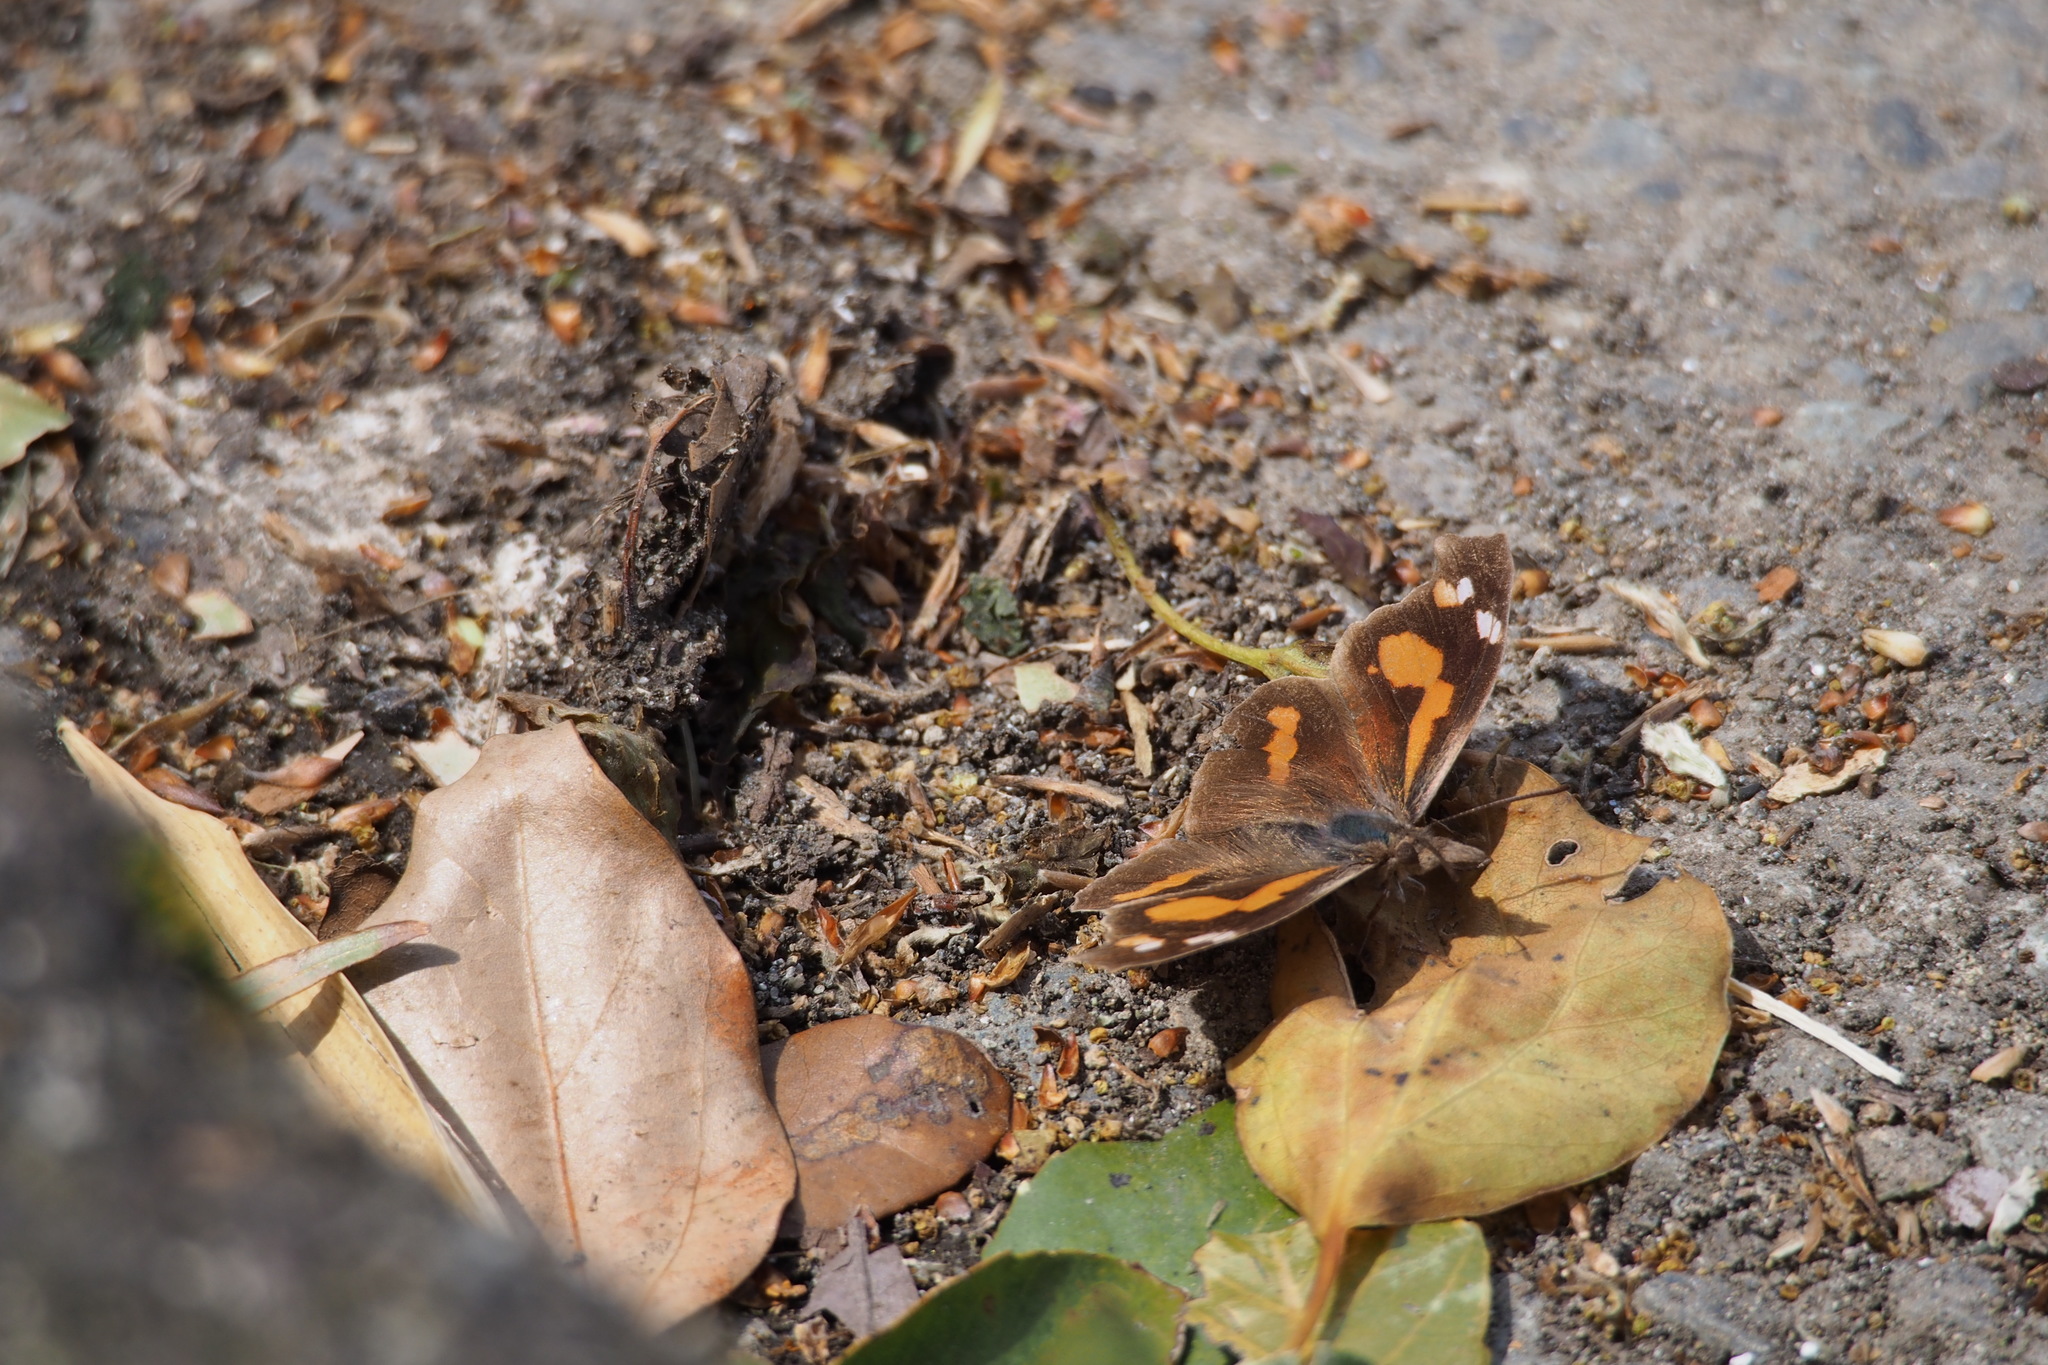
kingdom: Animalia
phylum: Arthropoda
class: Insecta
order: Lepidoptera
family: Nymphalidae
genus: Libythea
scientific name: Libythea lepita
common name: Common beak
